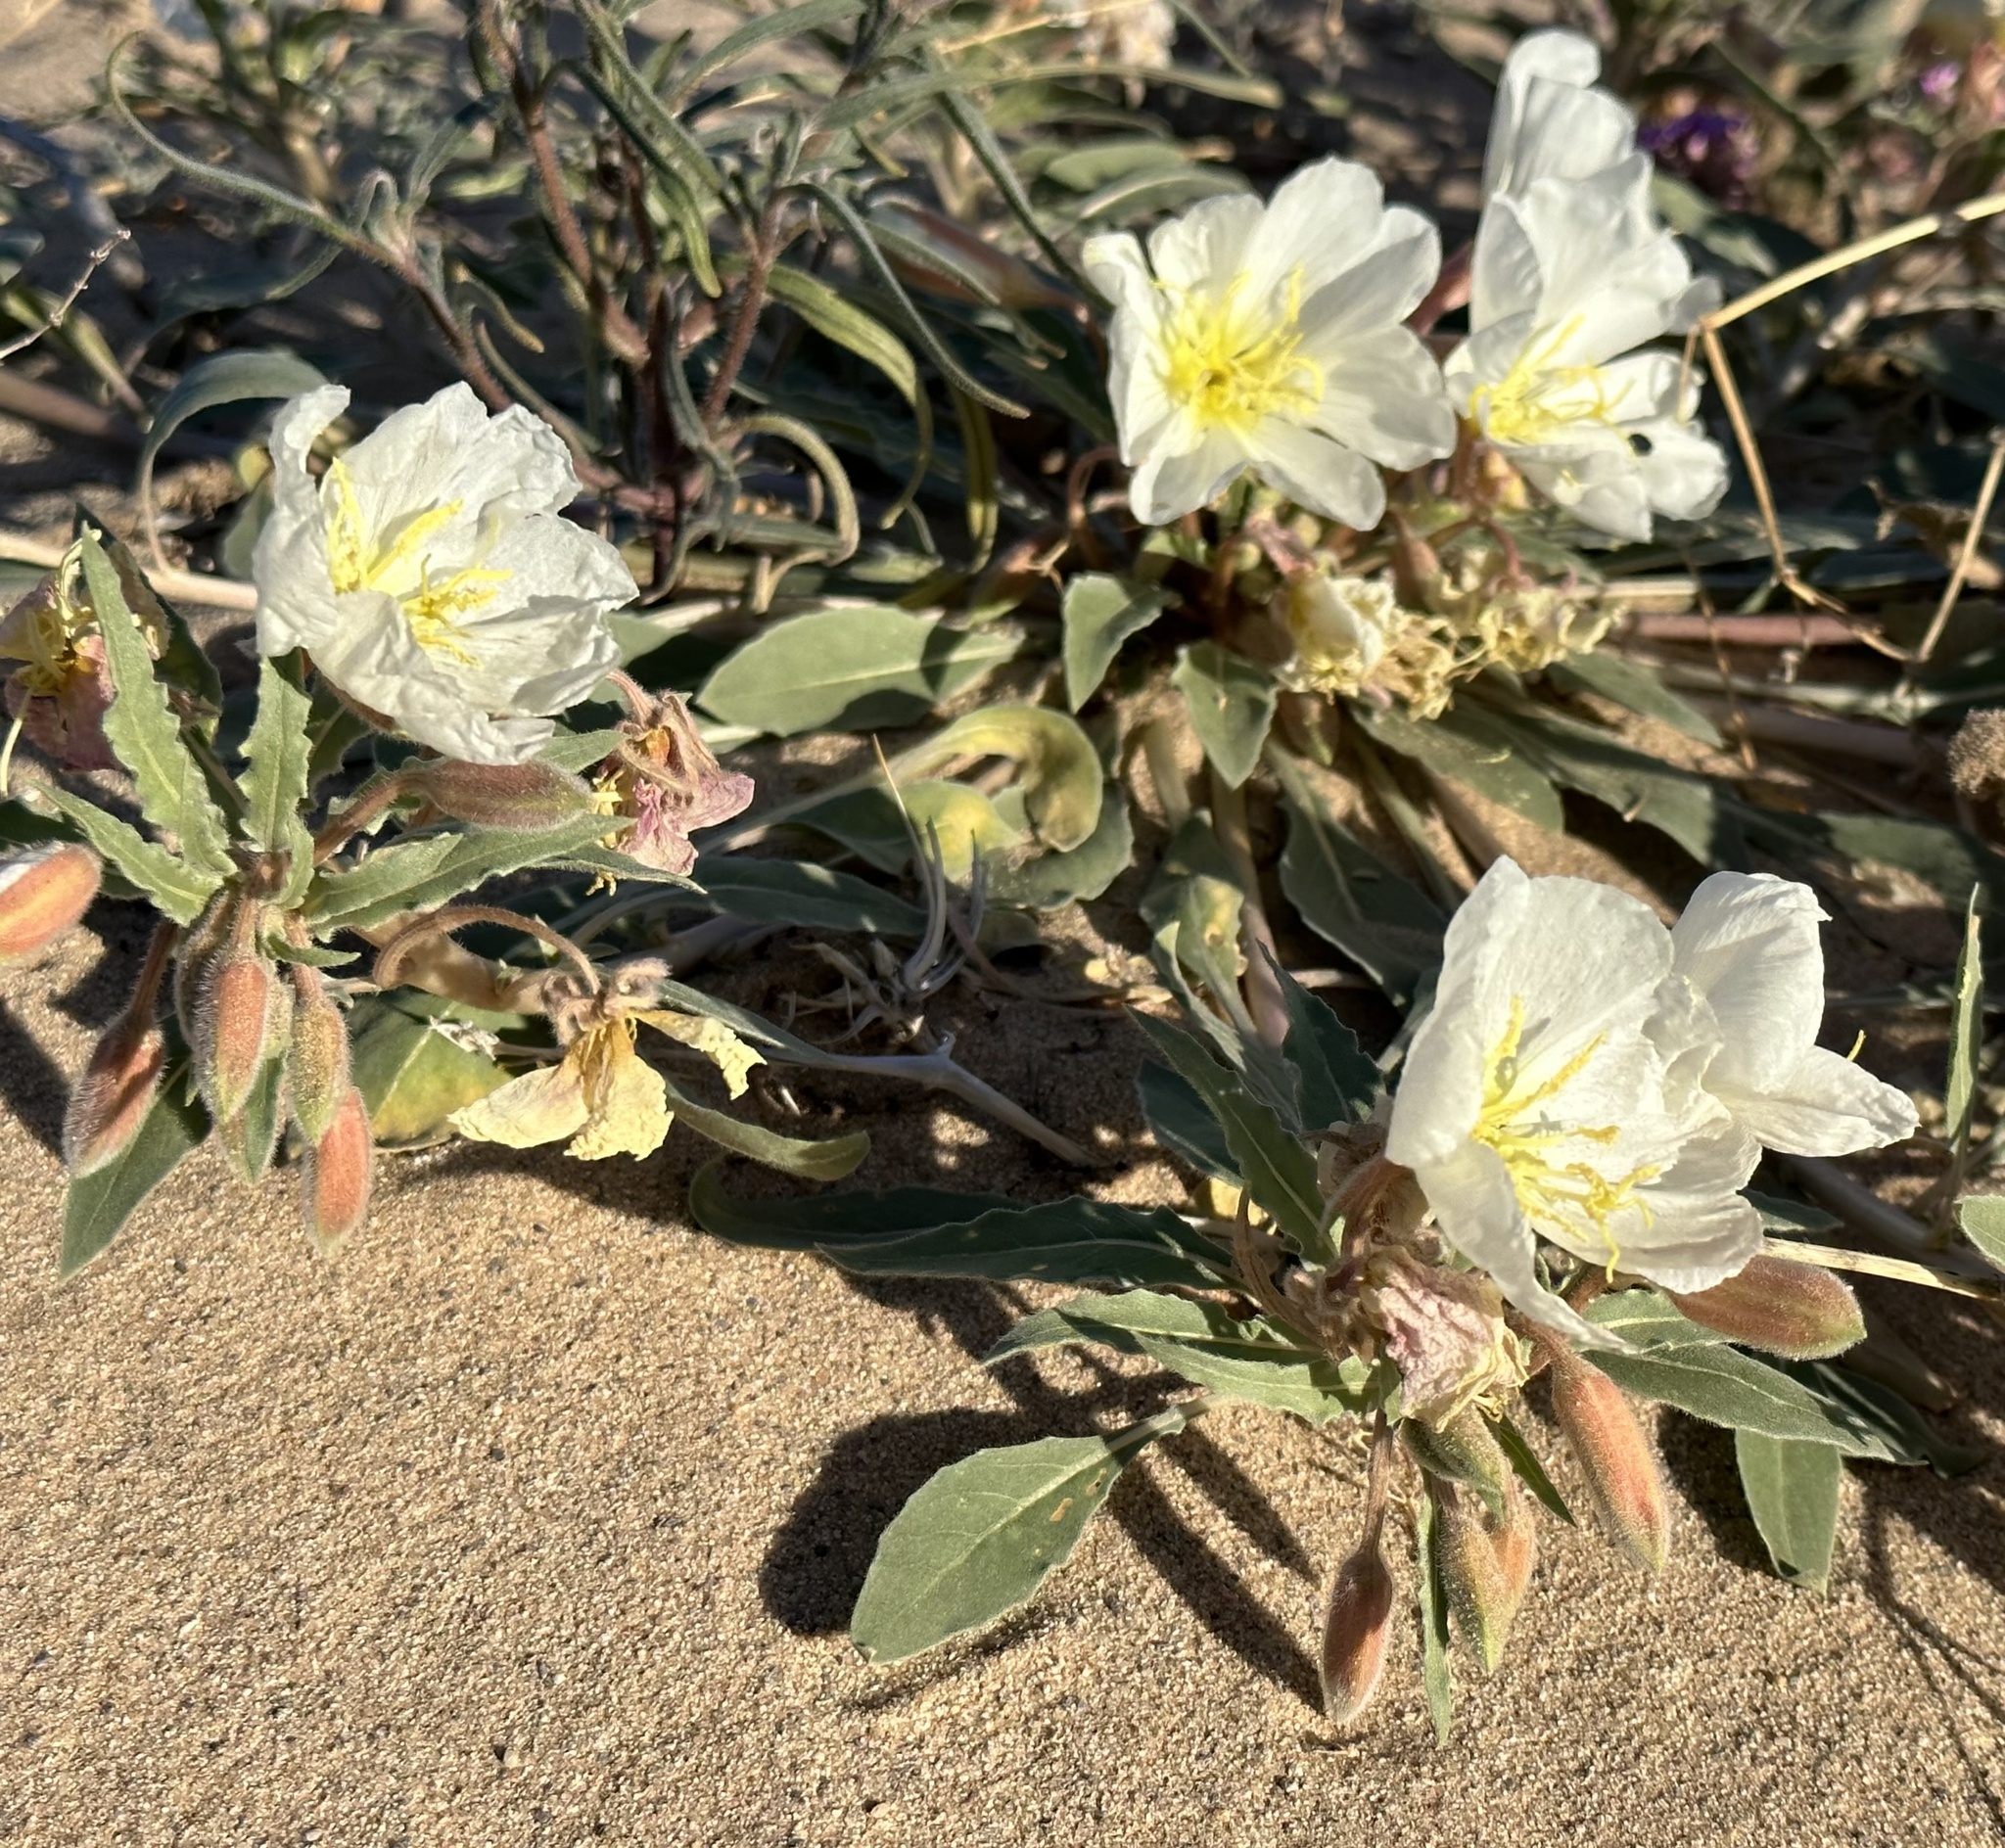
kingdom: Plantae
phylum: Tracheophyta
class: Magnoliopsida
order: Myrtales
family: Onagraceae
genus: Oenothera
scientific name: Oenothera deltoides
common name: Basket evening-primrose
